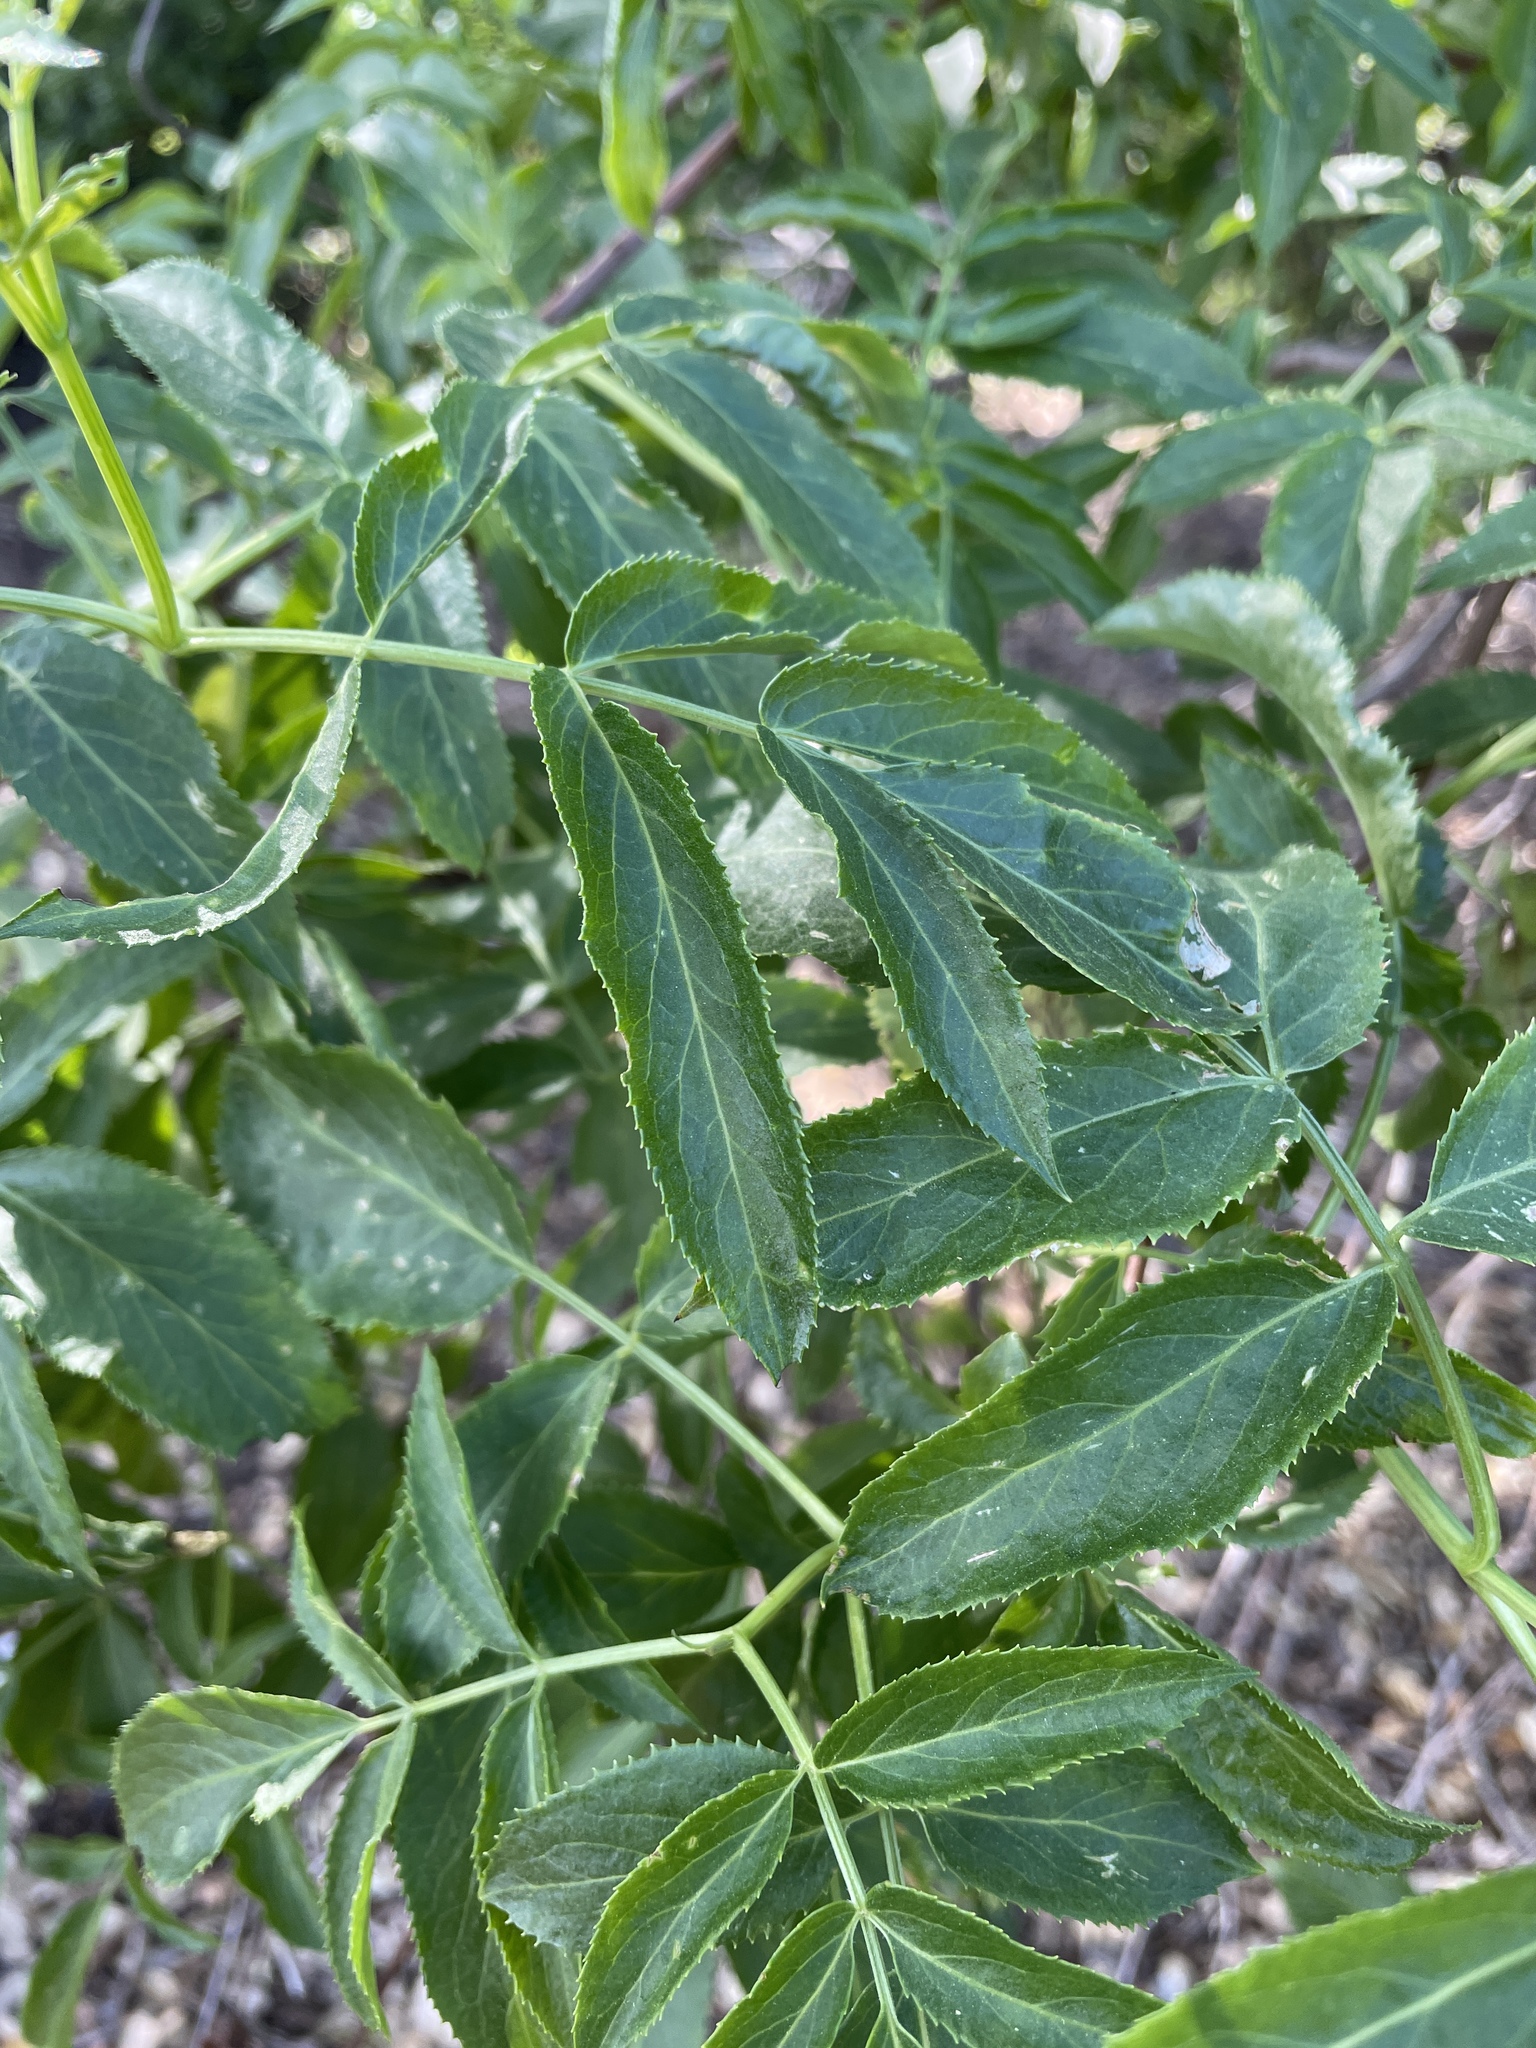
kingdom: Plantae
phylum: Tracheophyta
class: Magnoliopsida
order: Dipsacales
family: Viburnaceae
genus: Sambucus
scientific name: Sambucus cerulea
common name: Blue elder
